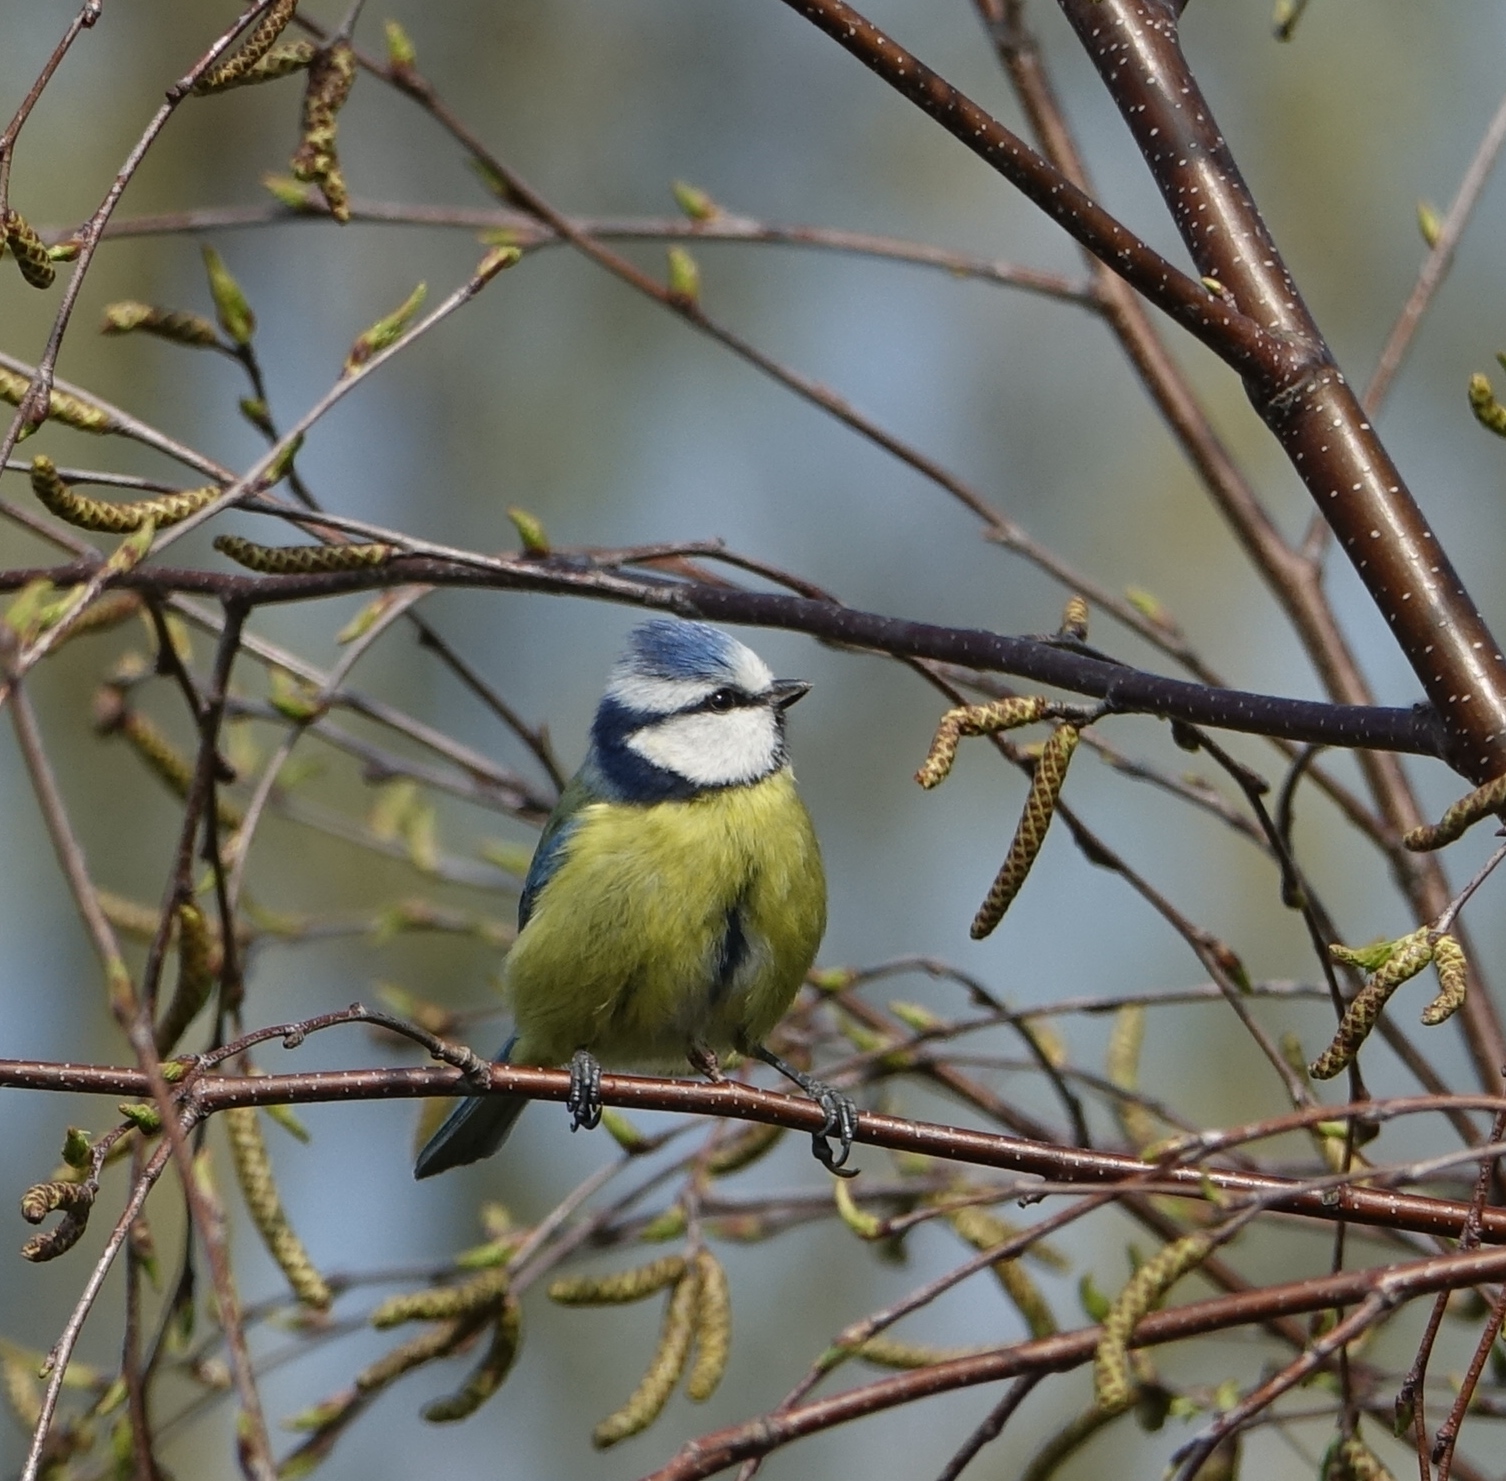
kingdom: Animalia
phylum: Chordata
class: Aves
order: Passeriformes
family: Paridae
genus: Cyanistes
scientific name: Cyanistes caeruleus
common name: Eurasian blue tit
